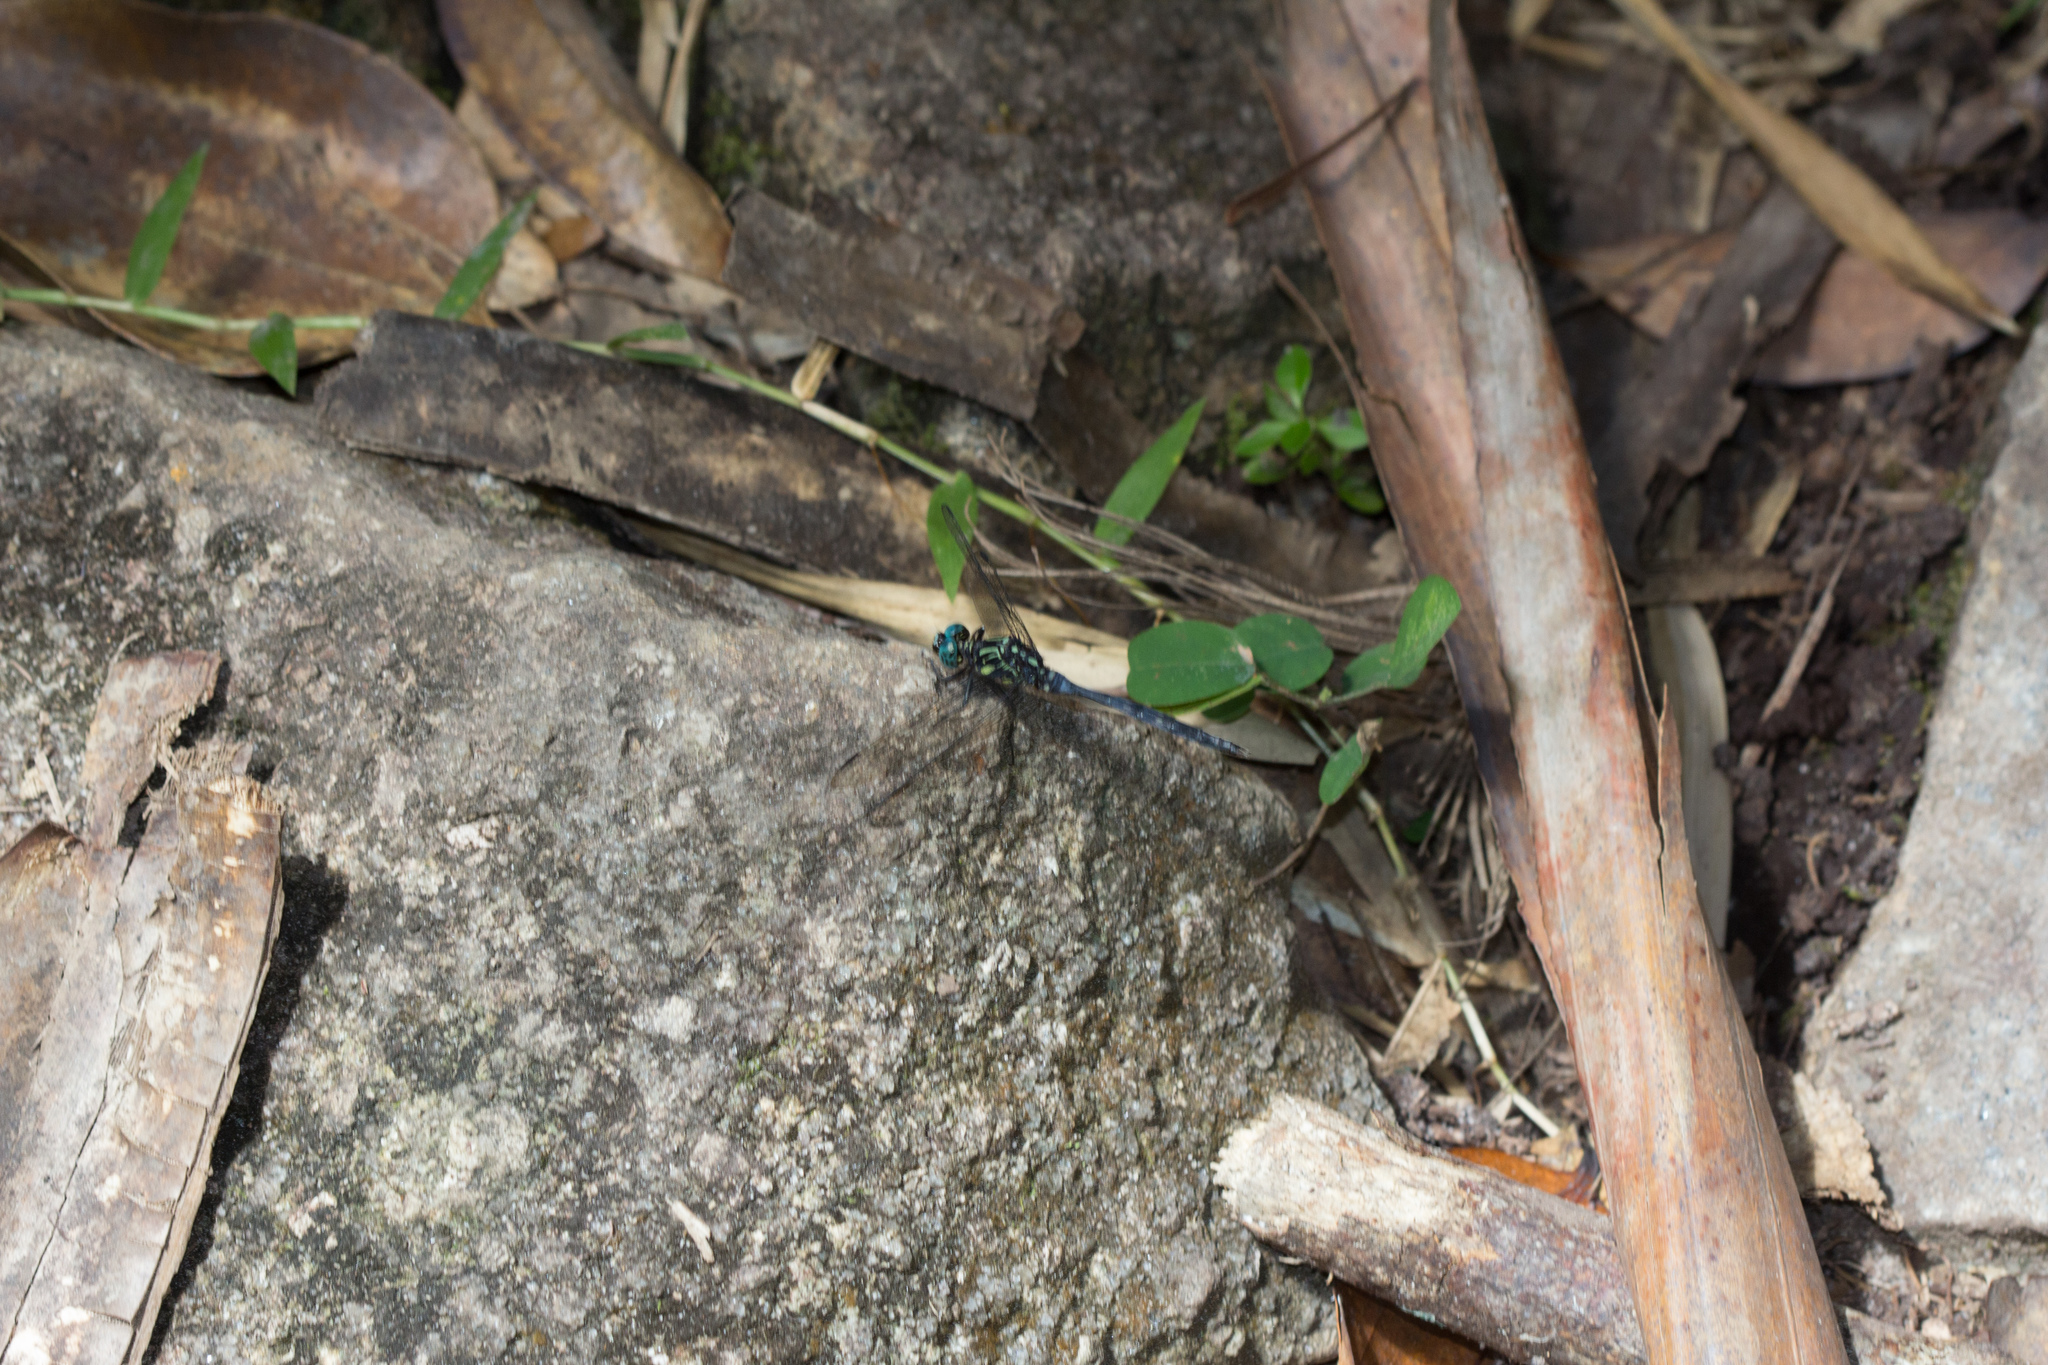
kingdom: Animalia
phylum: Arthropoda
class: Insecta
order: Odonata
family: Libellulidae
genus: Orthetrum
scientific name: Orthetrum stemmale
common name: Bold skimmer
